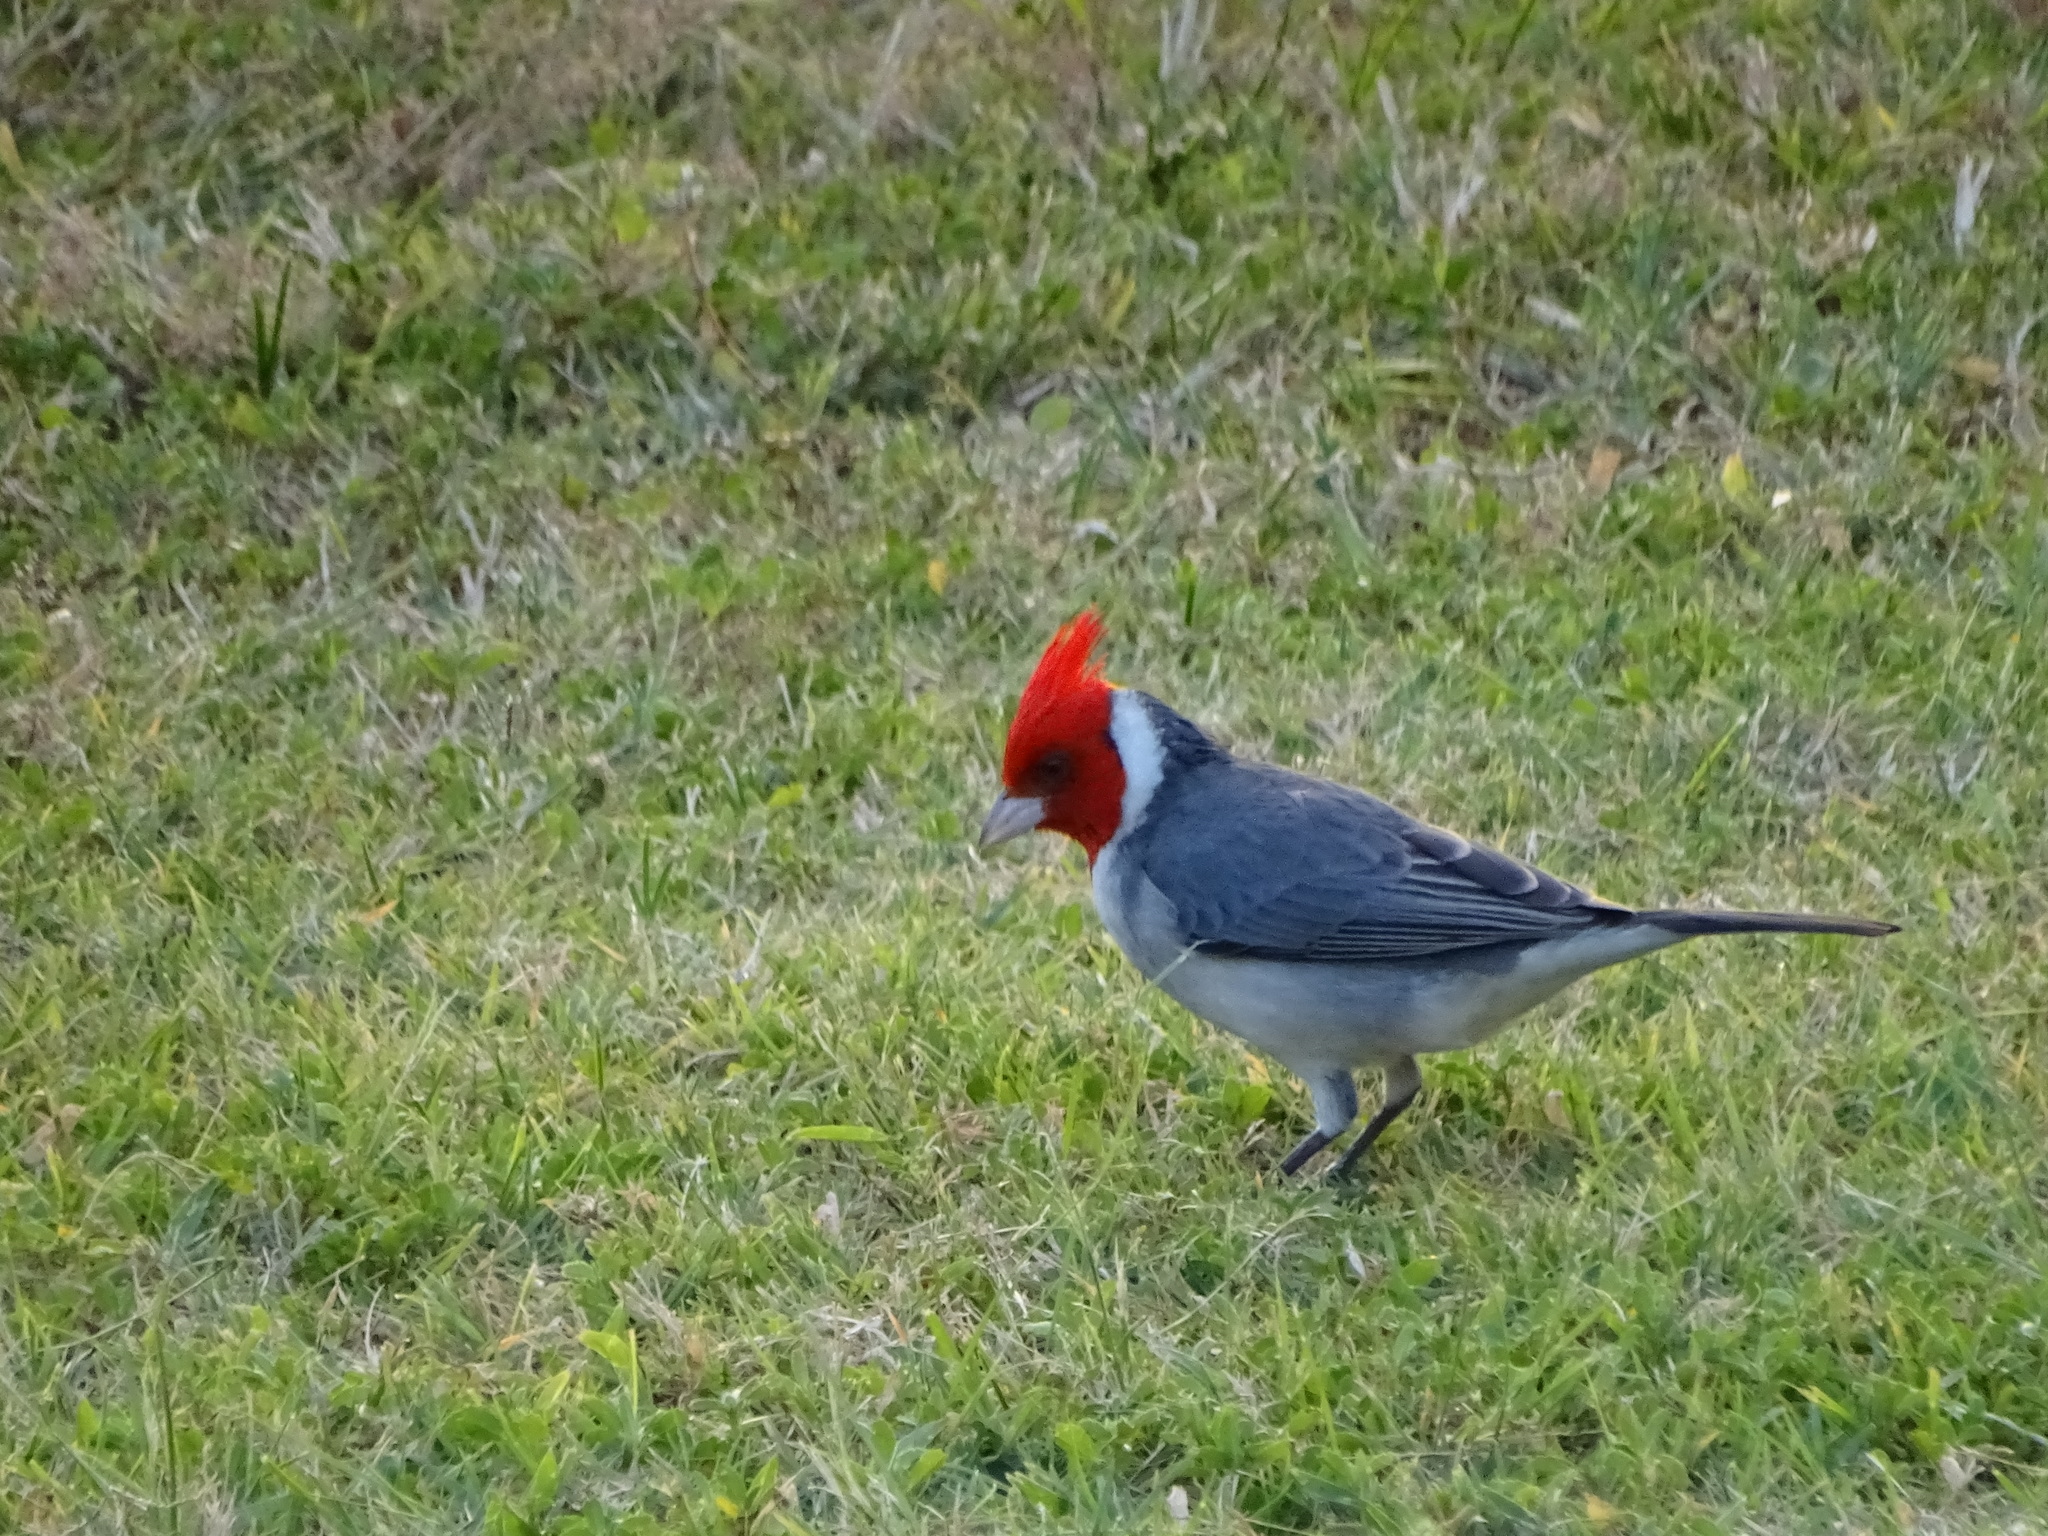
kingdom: Animalia
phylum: Chordata
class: Aves
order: Passeriformes
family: Thraupidae
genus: Paroaria
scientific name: Paroaria coronata
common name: Red-crested cardinal
